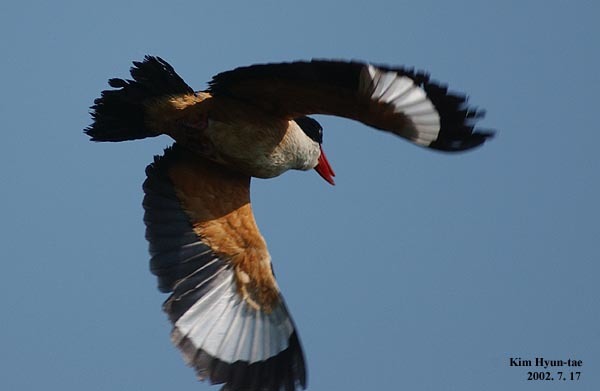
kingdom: Animalia
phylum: Chordata
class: Aves
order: Coraciiformes
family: Alcedinidae
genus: Halcyon
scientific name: Halcyon pileata
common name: Black-capped kingfisher
